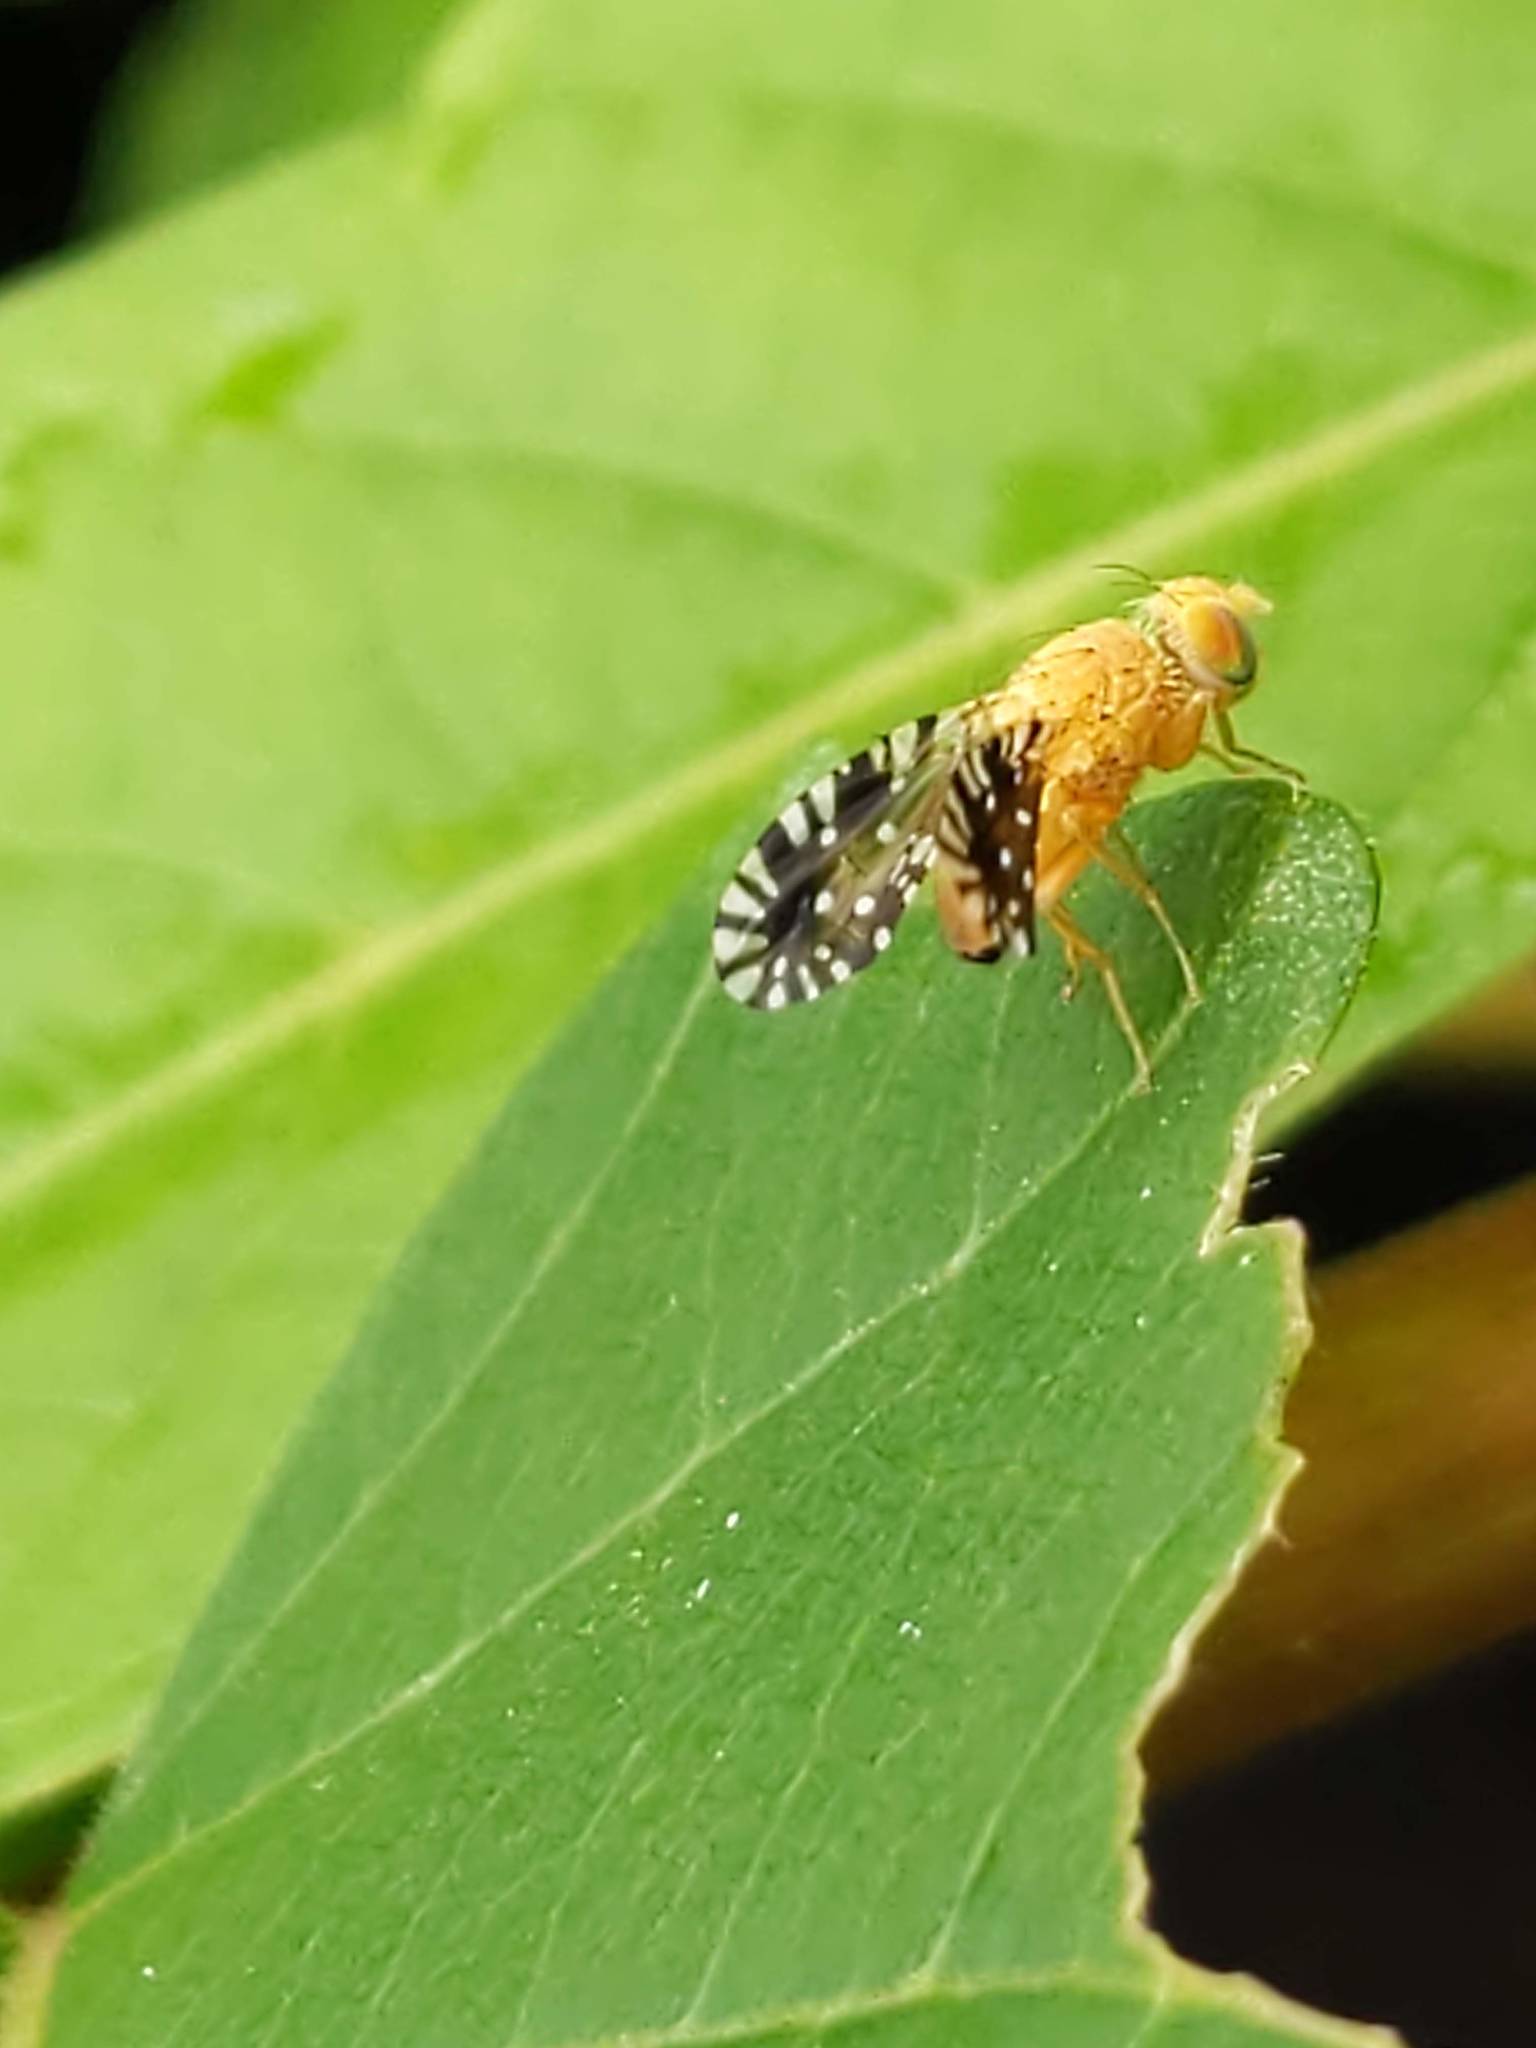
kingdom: Animalia
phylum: Arthropoda
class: Insecta
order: Diptera
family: Tephritidae
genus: Euaresta
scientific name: Euaresta festiva
